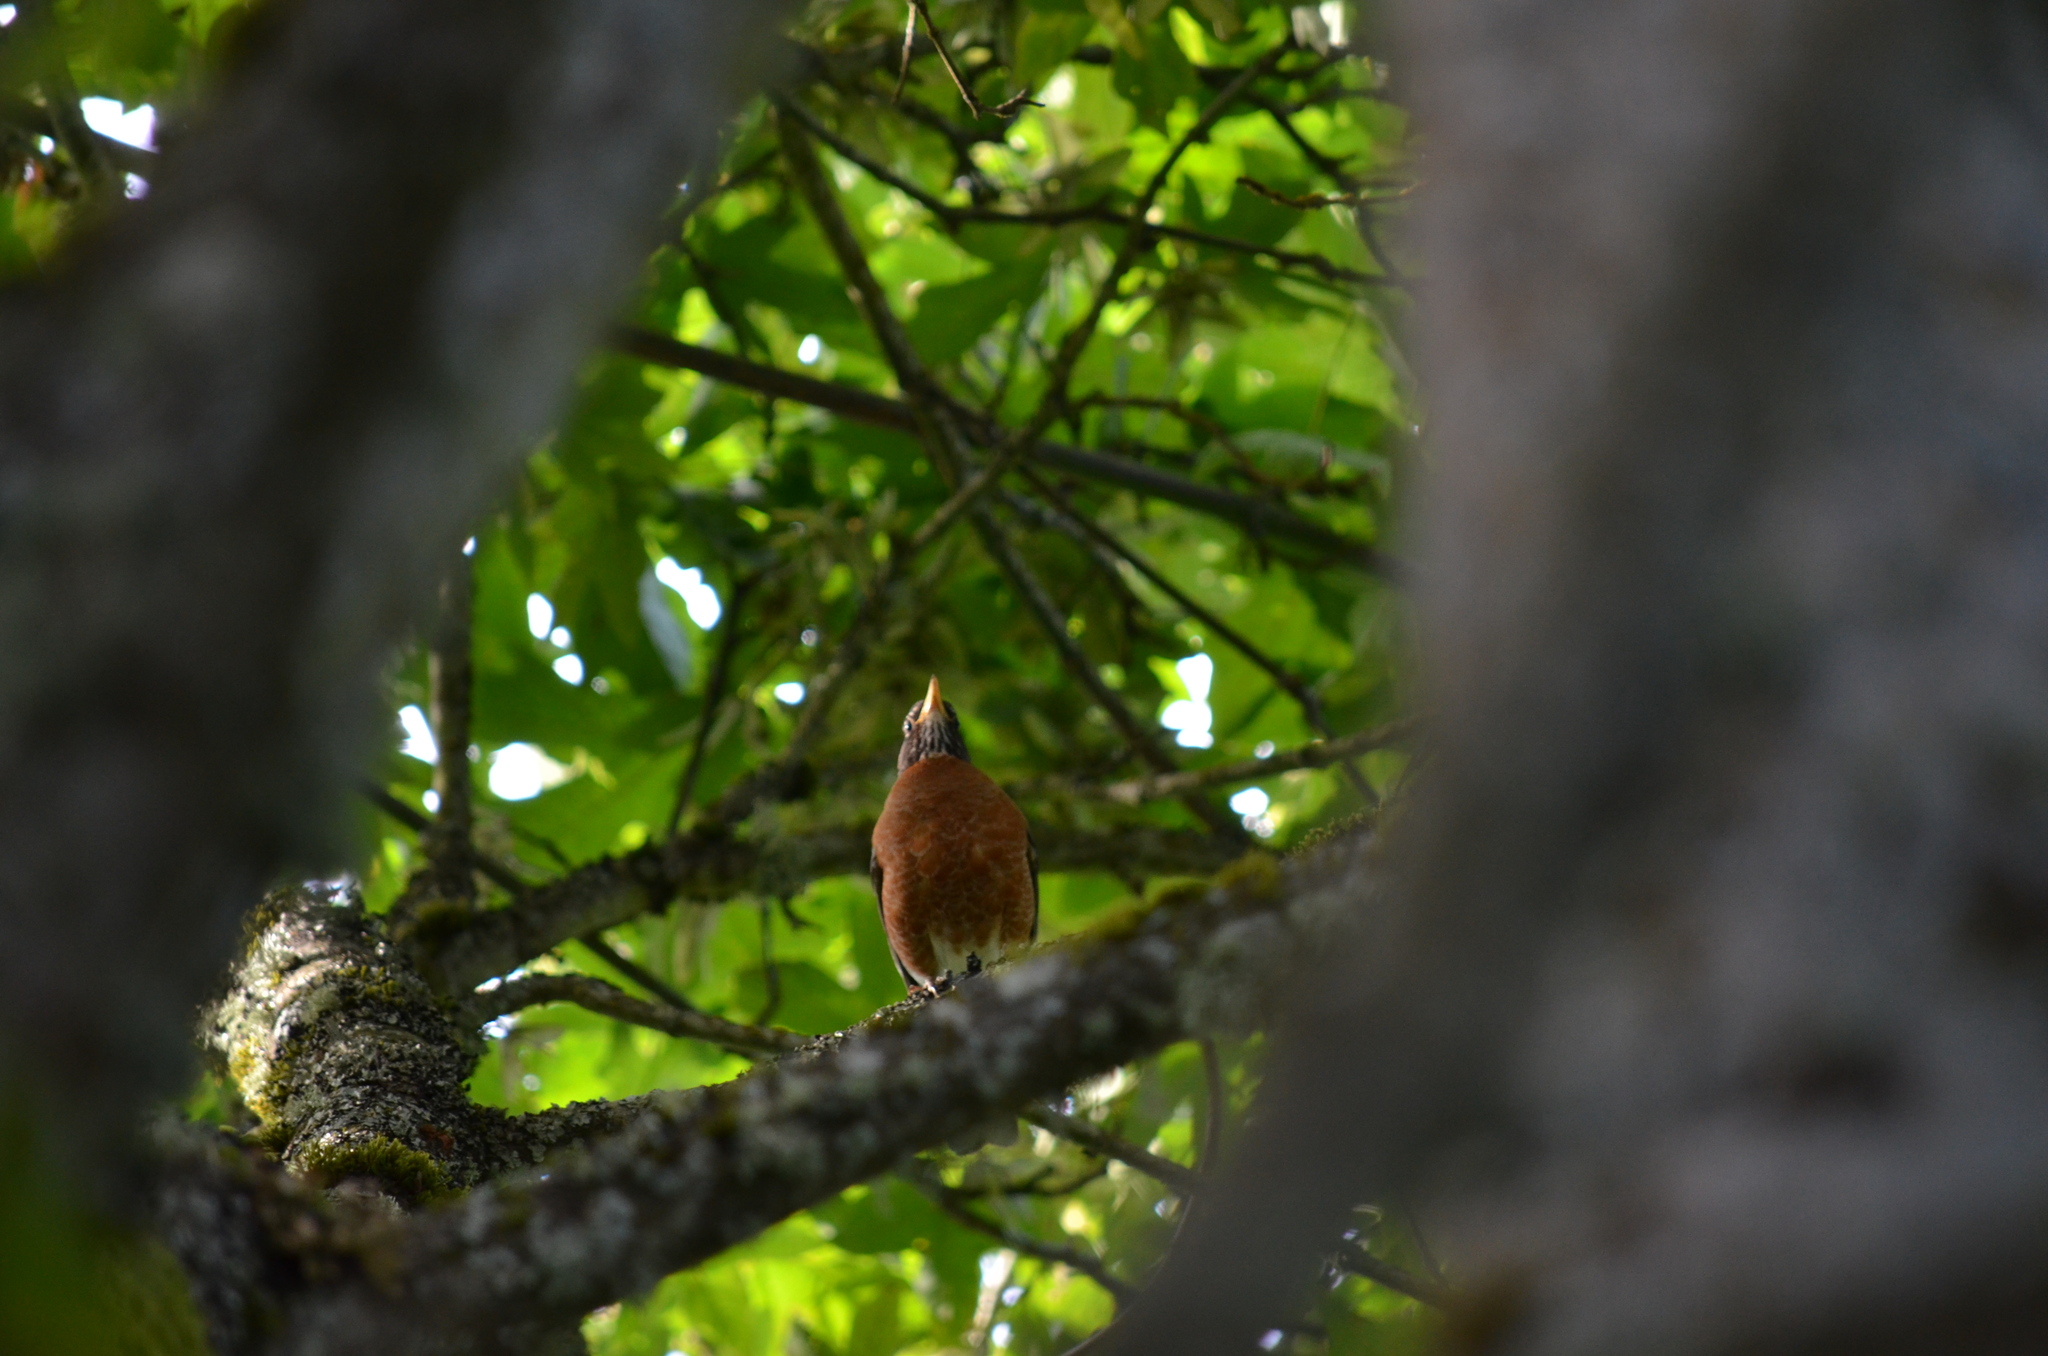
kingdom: Animalia
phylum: Chordata
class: Aves
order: Passeriformes
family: Turdidae
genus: Turdus
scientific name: Turdus migratorius
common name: American robin
